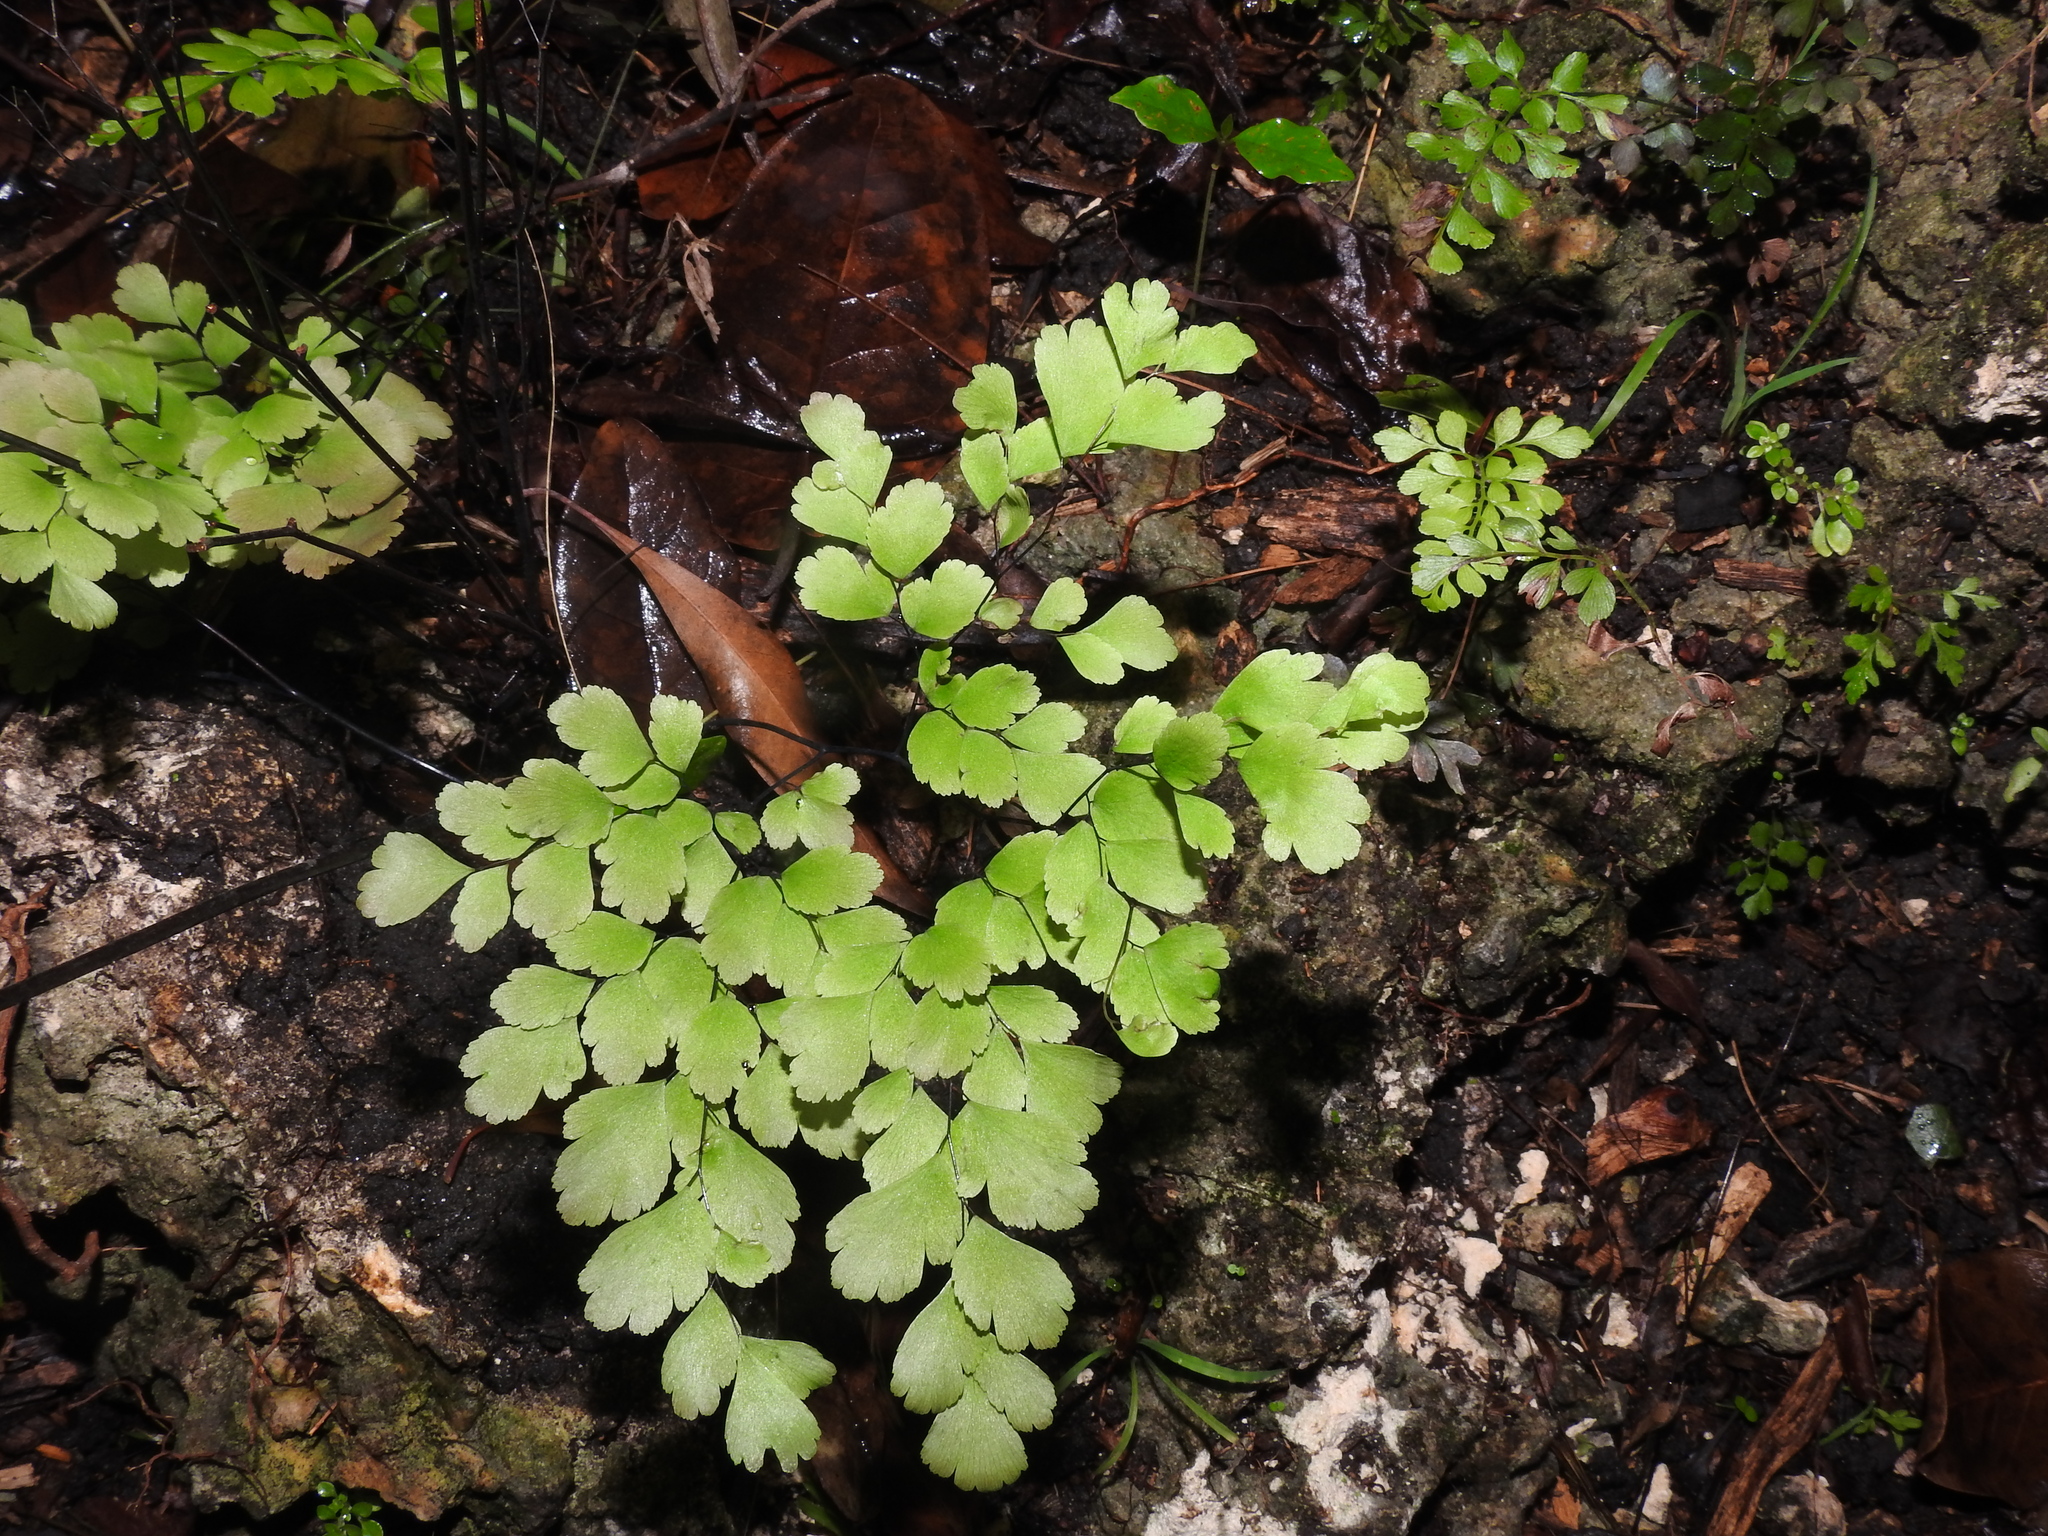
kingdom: Plantae
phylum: Tracheophyta
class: Polypodiopsida
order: Polypodiales
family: Pteridaceae
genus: Adiantum
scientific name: Adiantum tenerum
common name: Fan maidenhair
